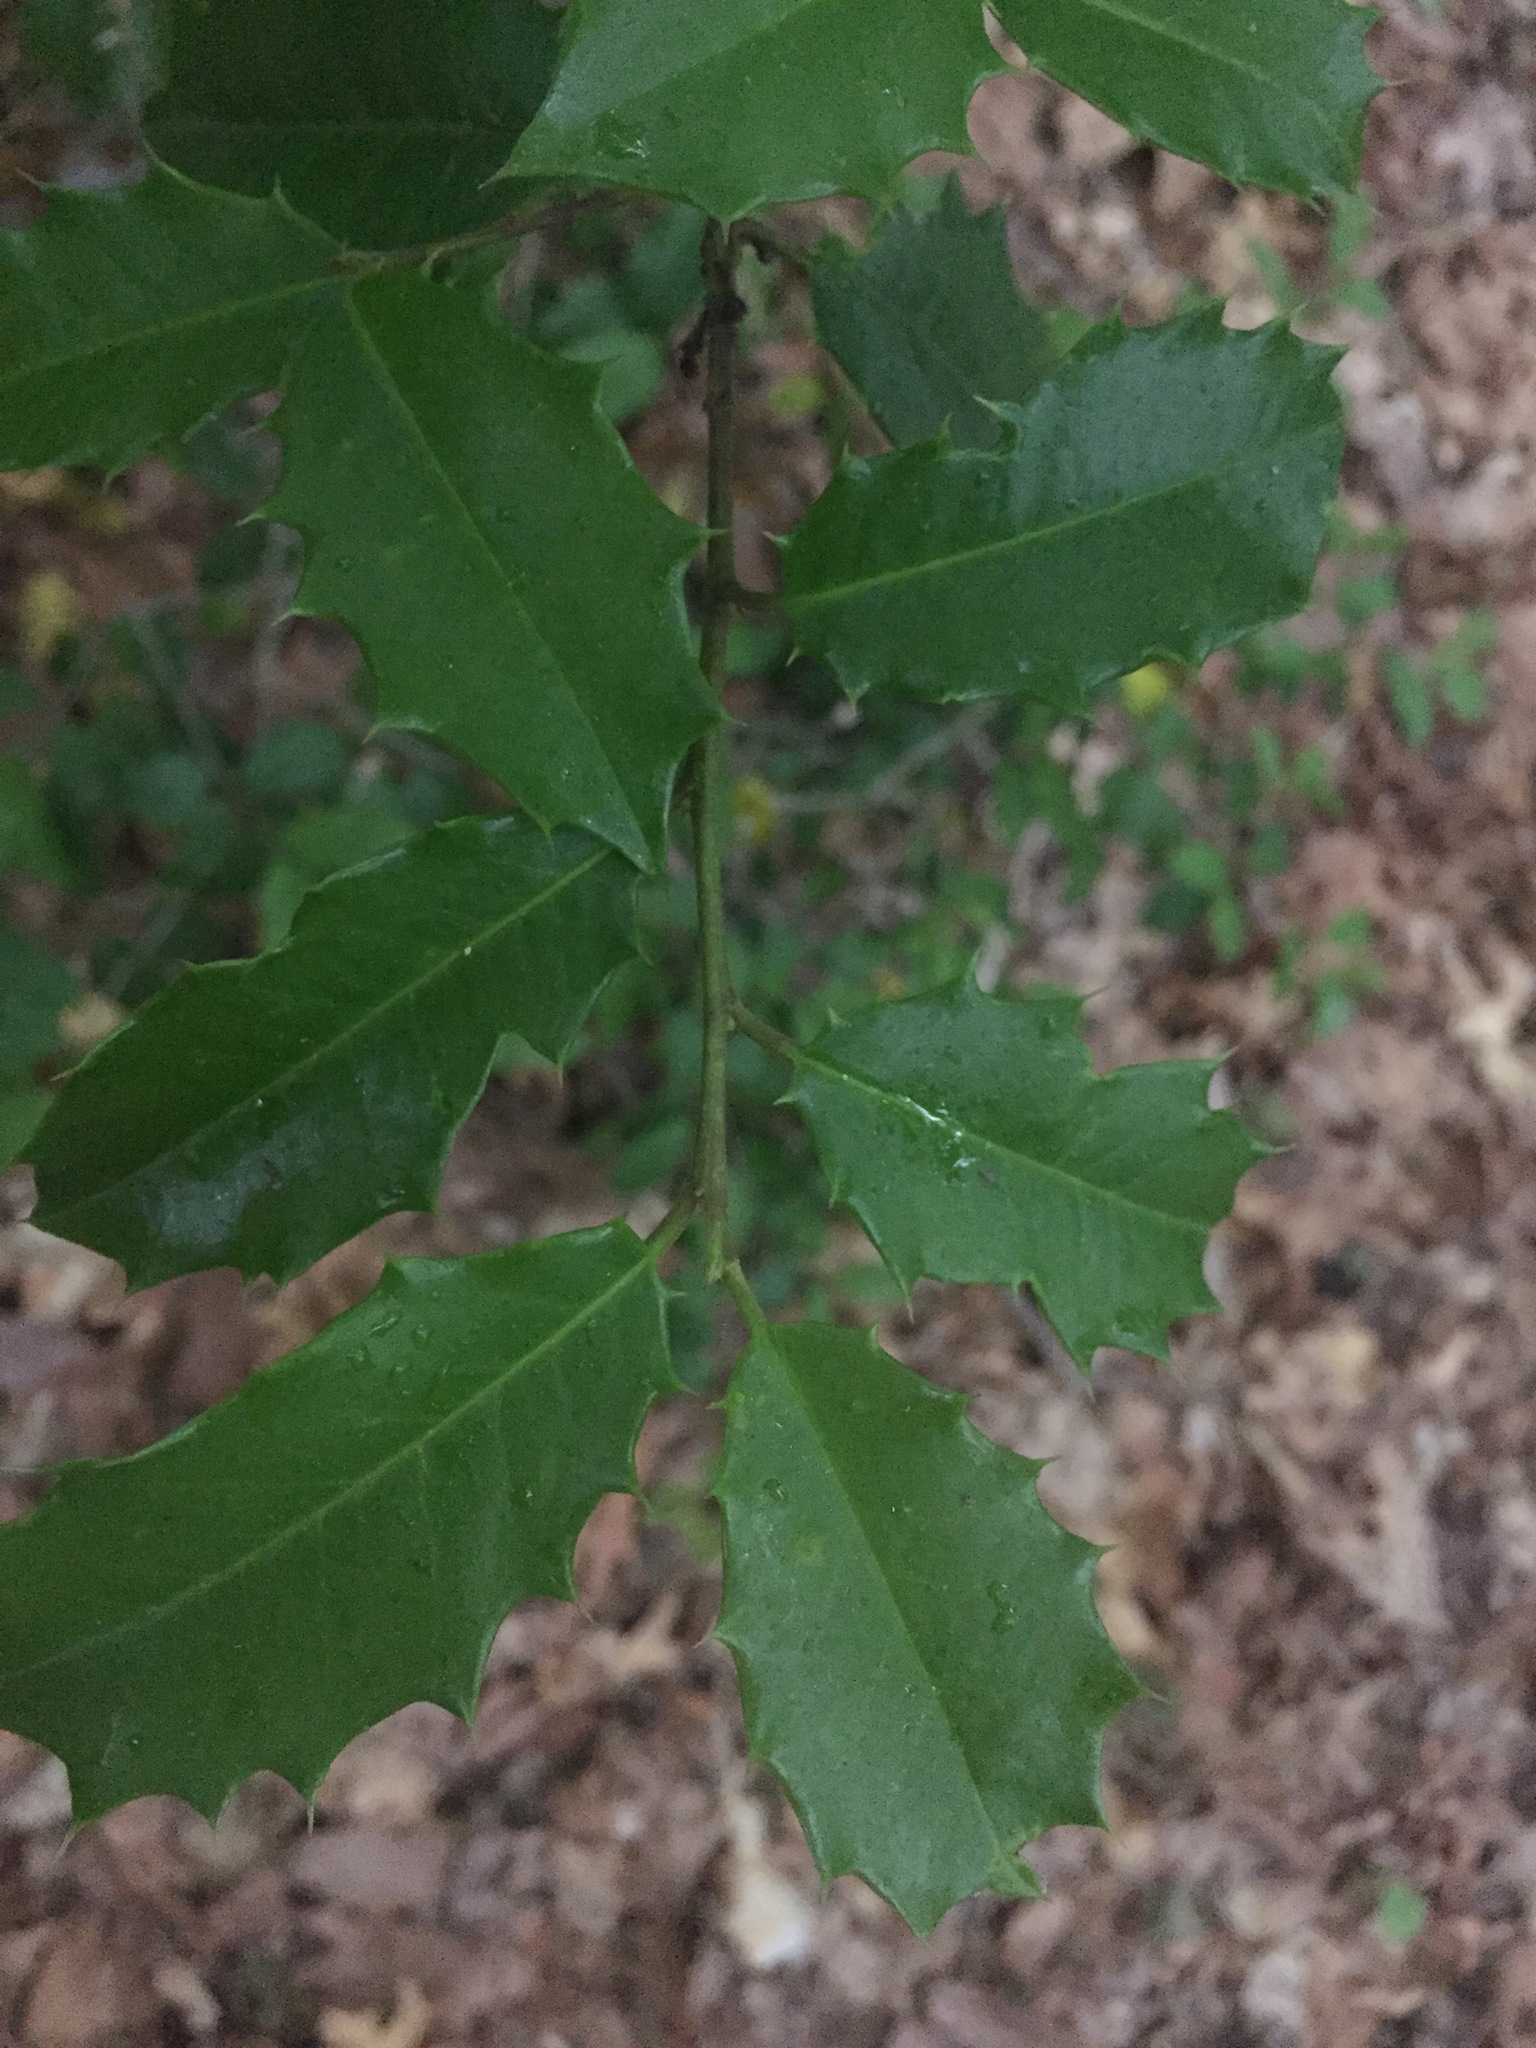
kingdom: Plantae
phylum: Tracheophyta
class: Magnoliopsida
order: Aquifoliales
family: Aquifoliaceae
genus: Ilex
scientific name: Ilex opaca
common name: American holly
